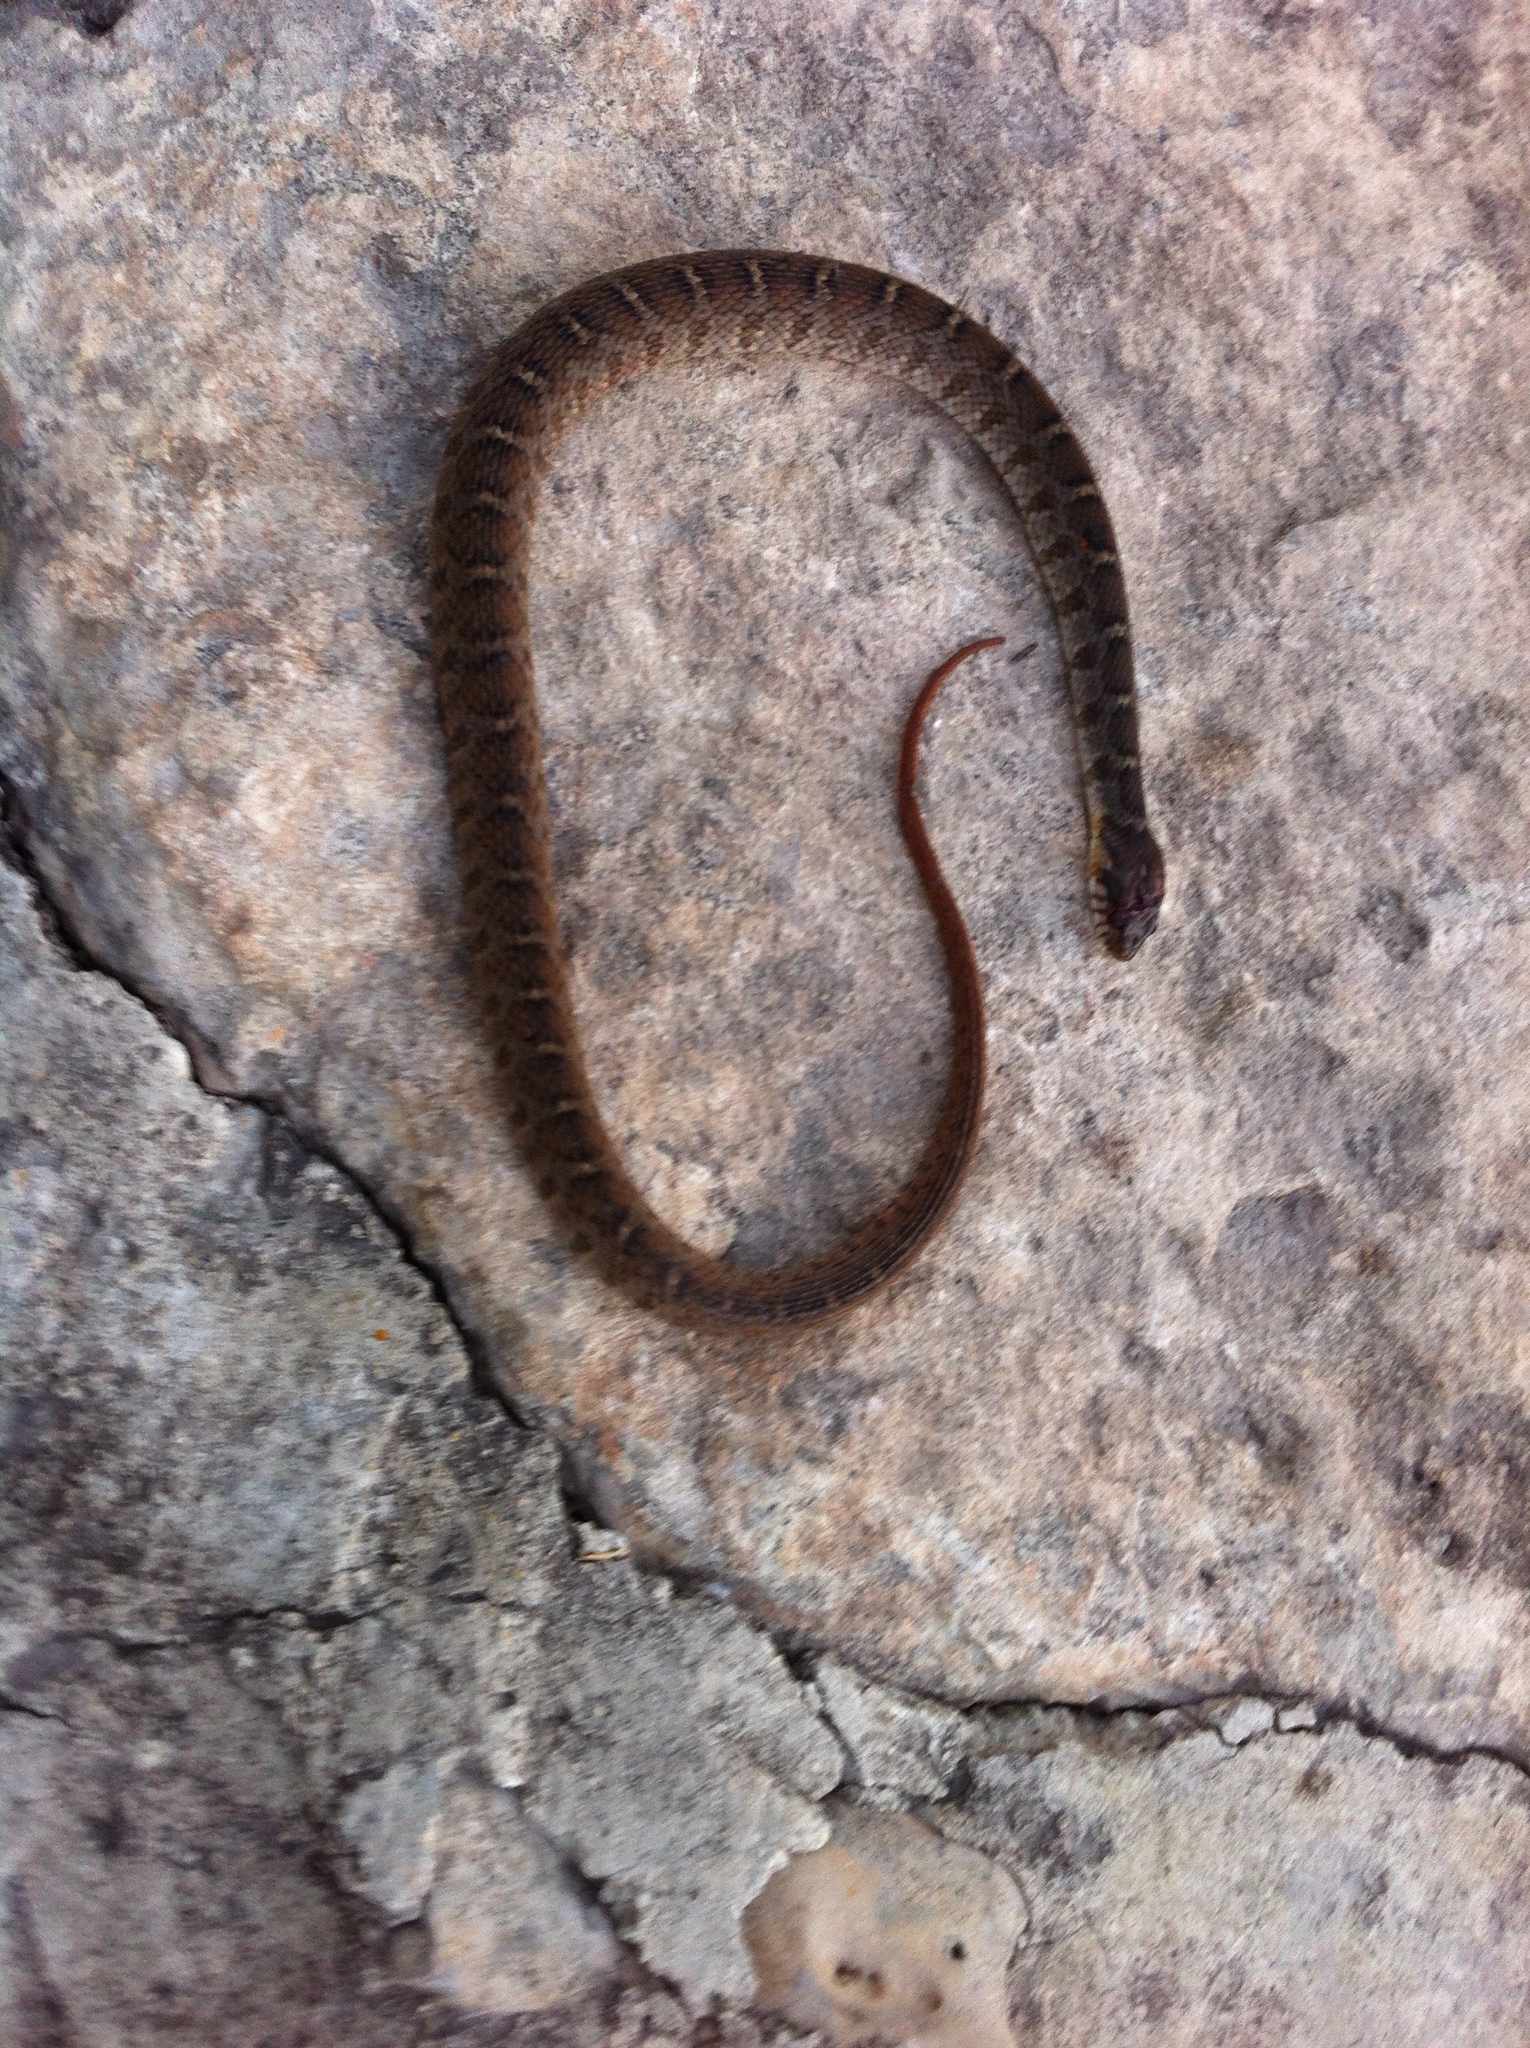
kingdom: Animalia
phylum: Chordata
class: Squamata
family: Colubridae
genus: Nerodia
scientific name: Nerodia erythrogaster
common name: Plainbelly water snake
